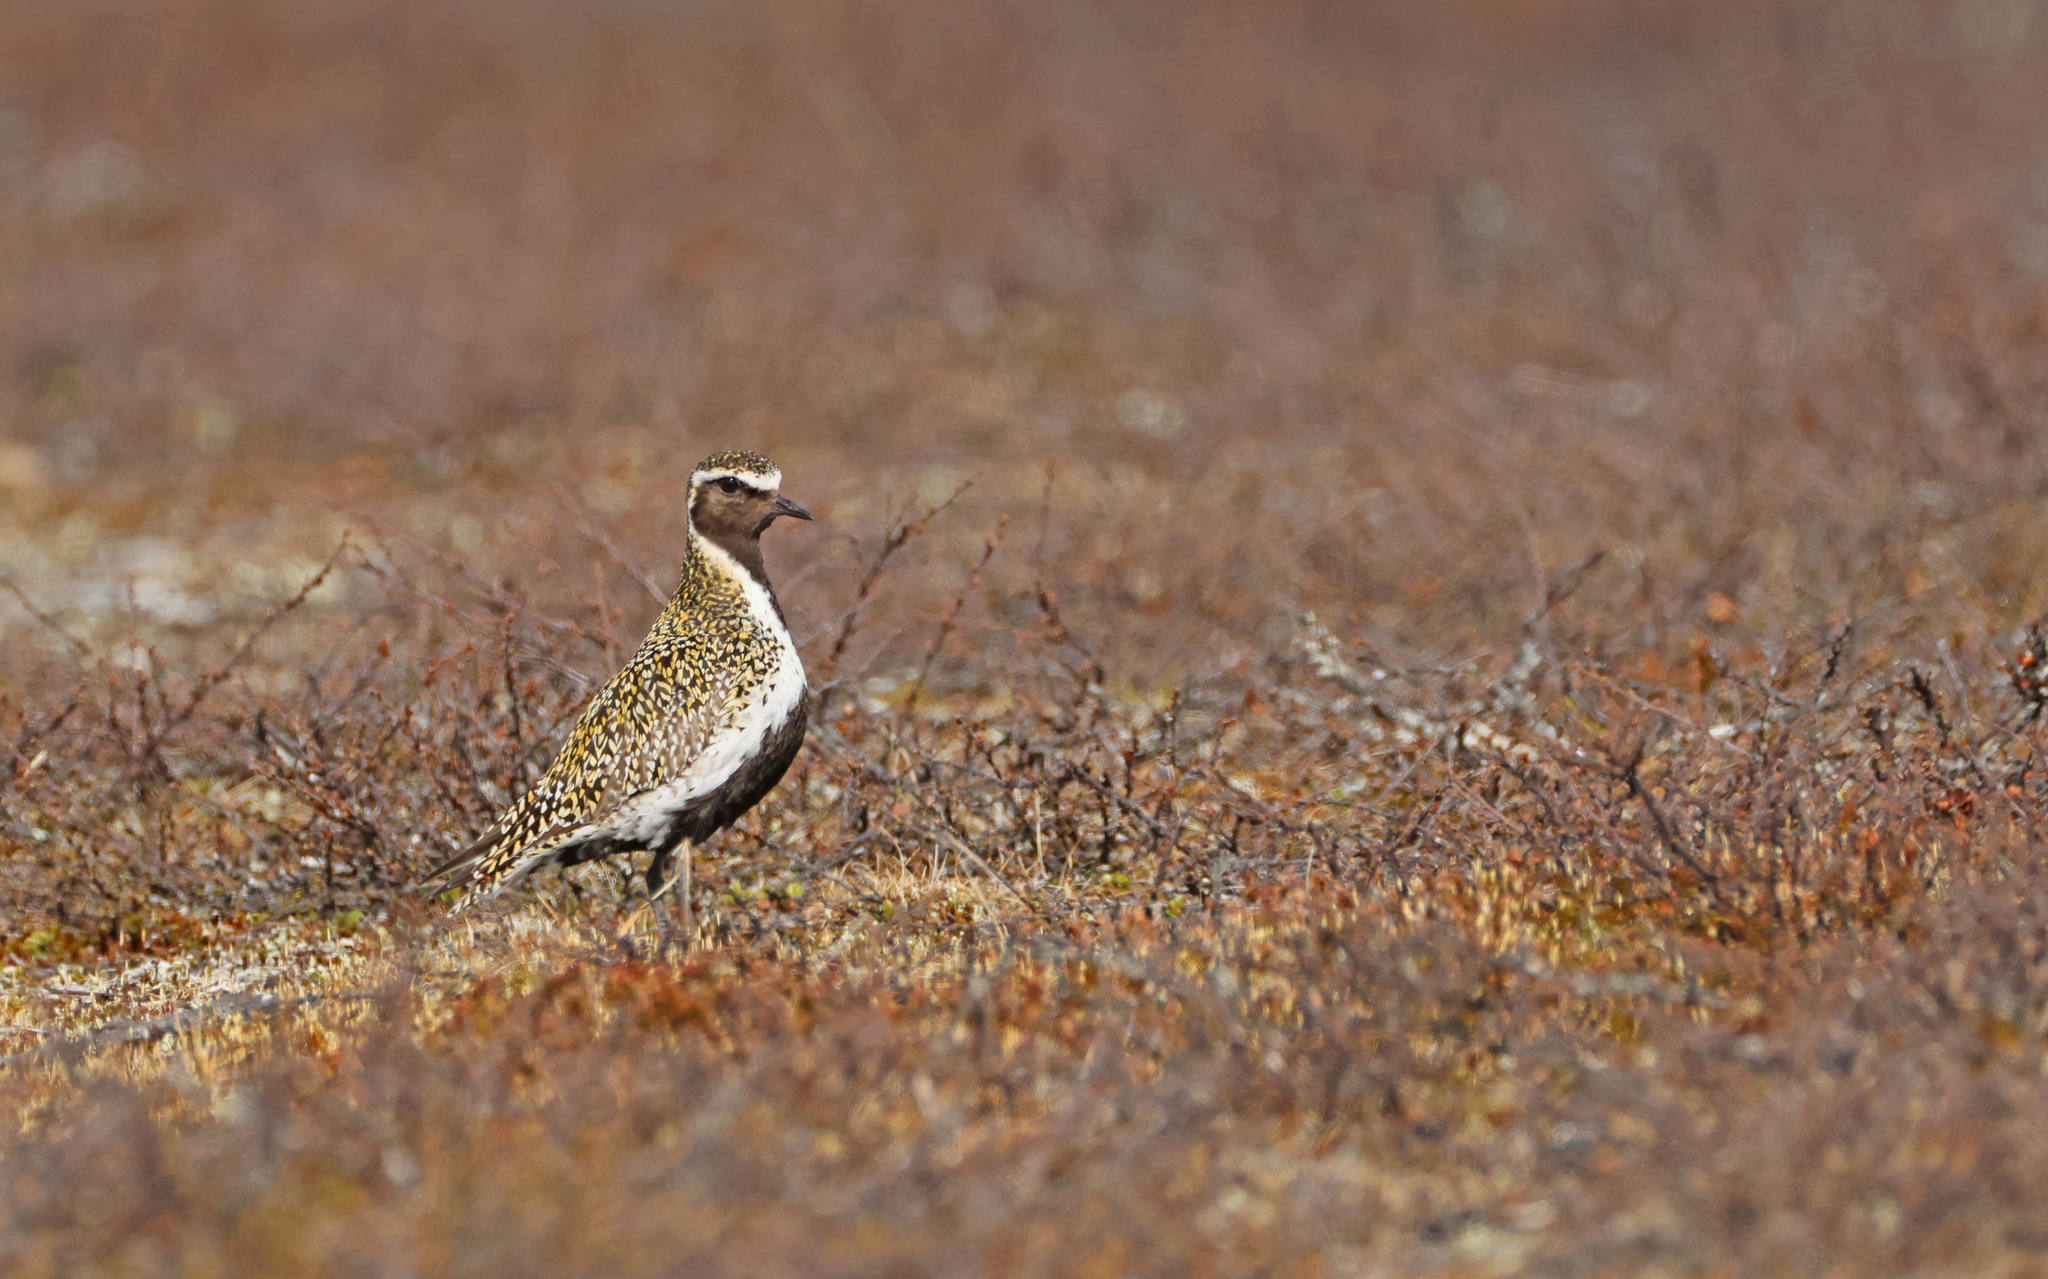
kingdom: Animalia
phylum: Chordata
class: Aves
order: Charadriiformes
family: Charadriidae
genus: Pluvialis
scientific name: Pluvialis apricaria
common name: European golden plover
